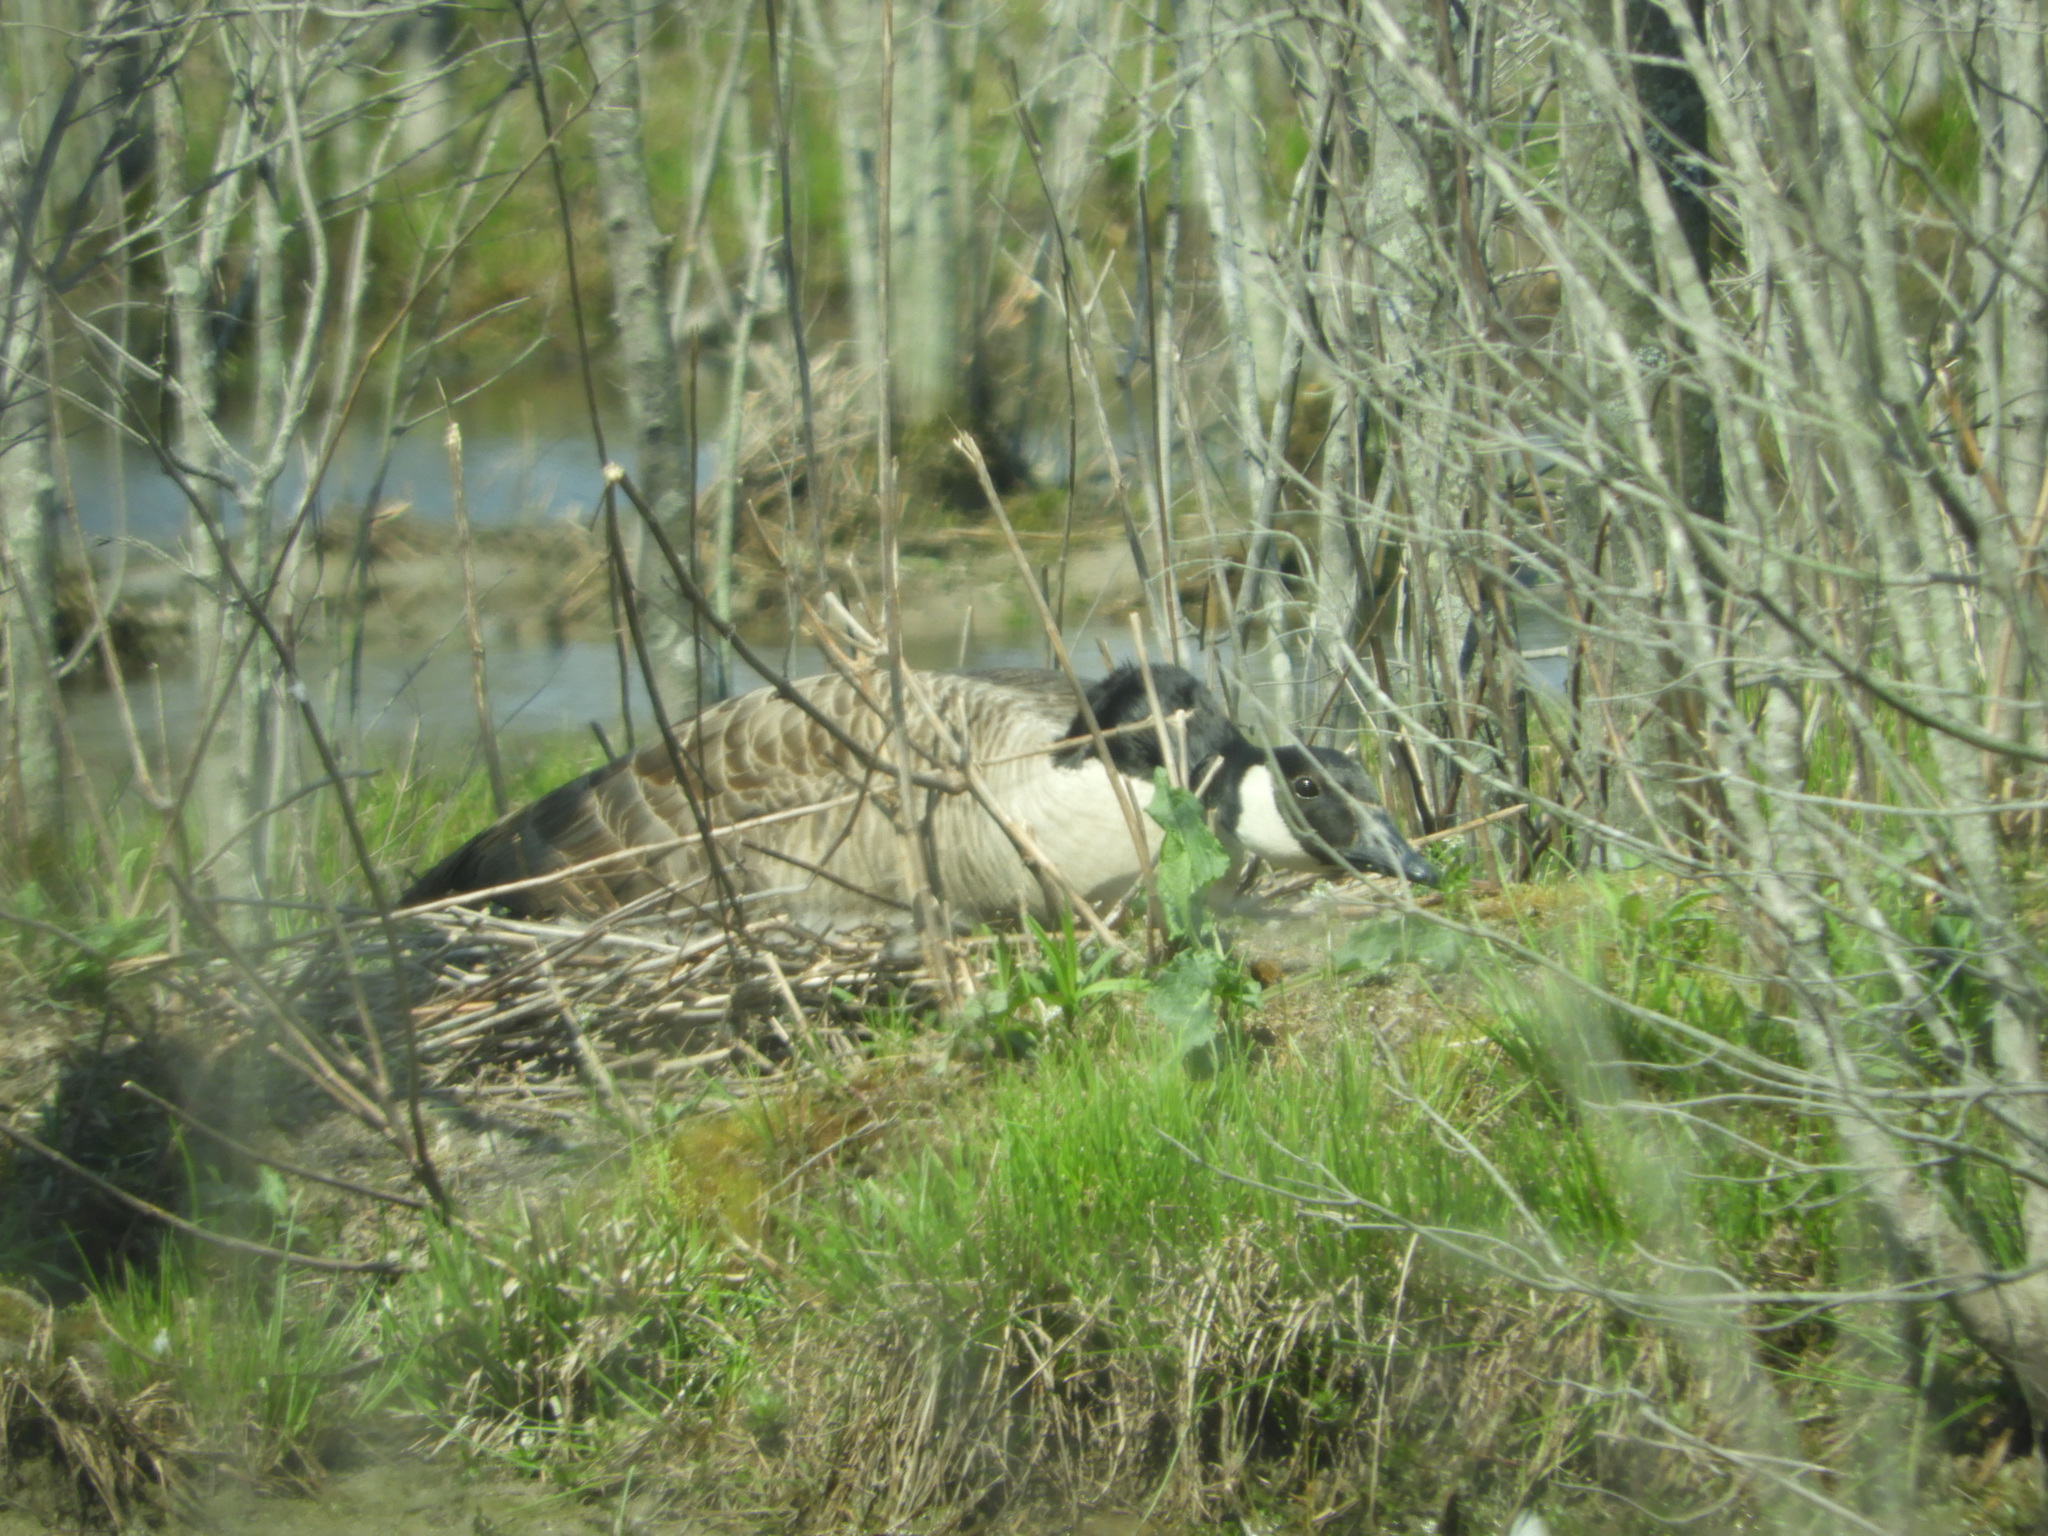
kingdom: Animalia
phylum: Chordata
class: Aves
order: Anseriformes
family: Anatidae
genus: Branta
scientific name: Branta canadensis
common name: Canada goose
